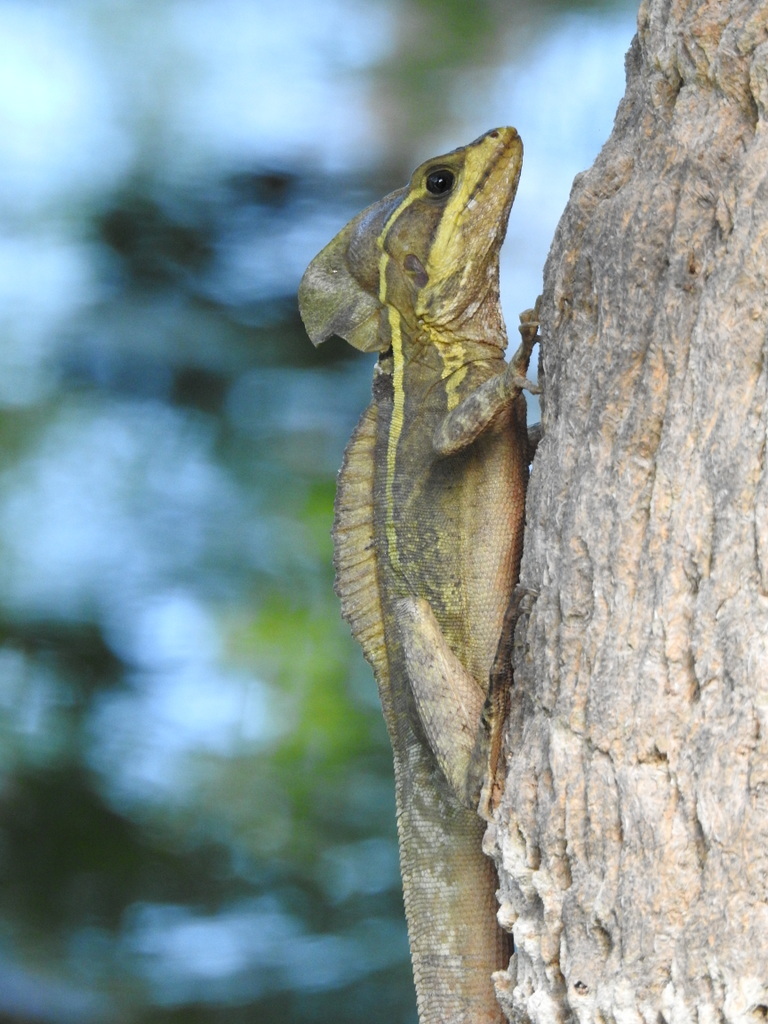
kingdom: Animalia
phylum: Chordata
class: Squamata
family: Corytophanidae
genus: Basiliscus
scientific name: Basiliscus vittatus
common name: Brown basilisk
